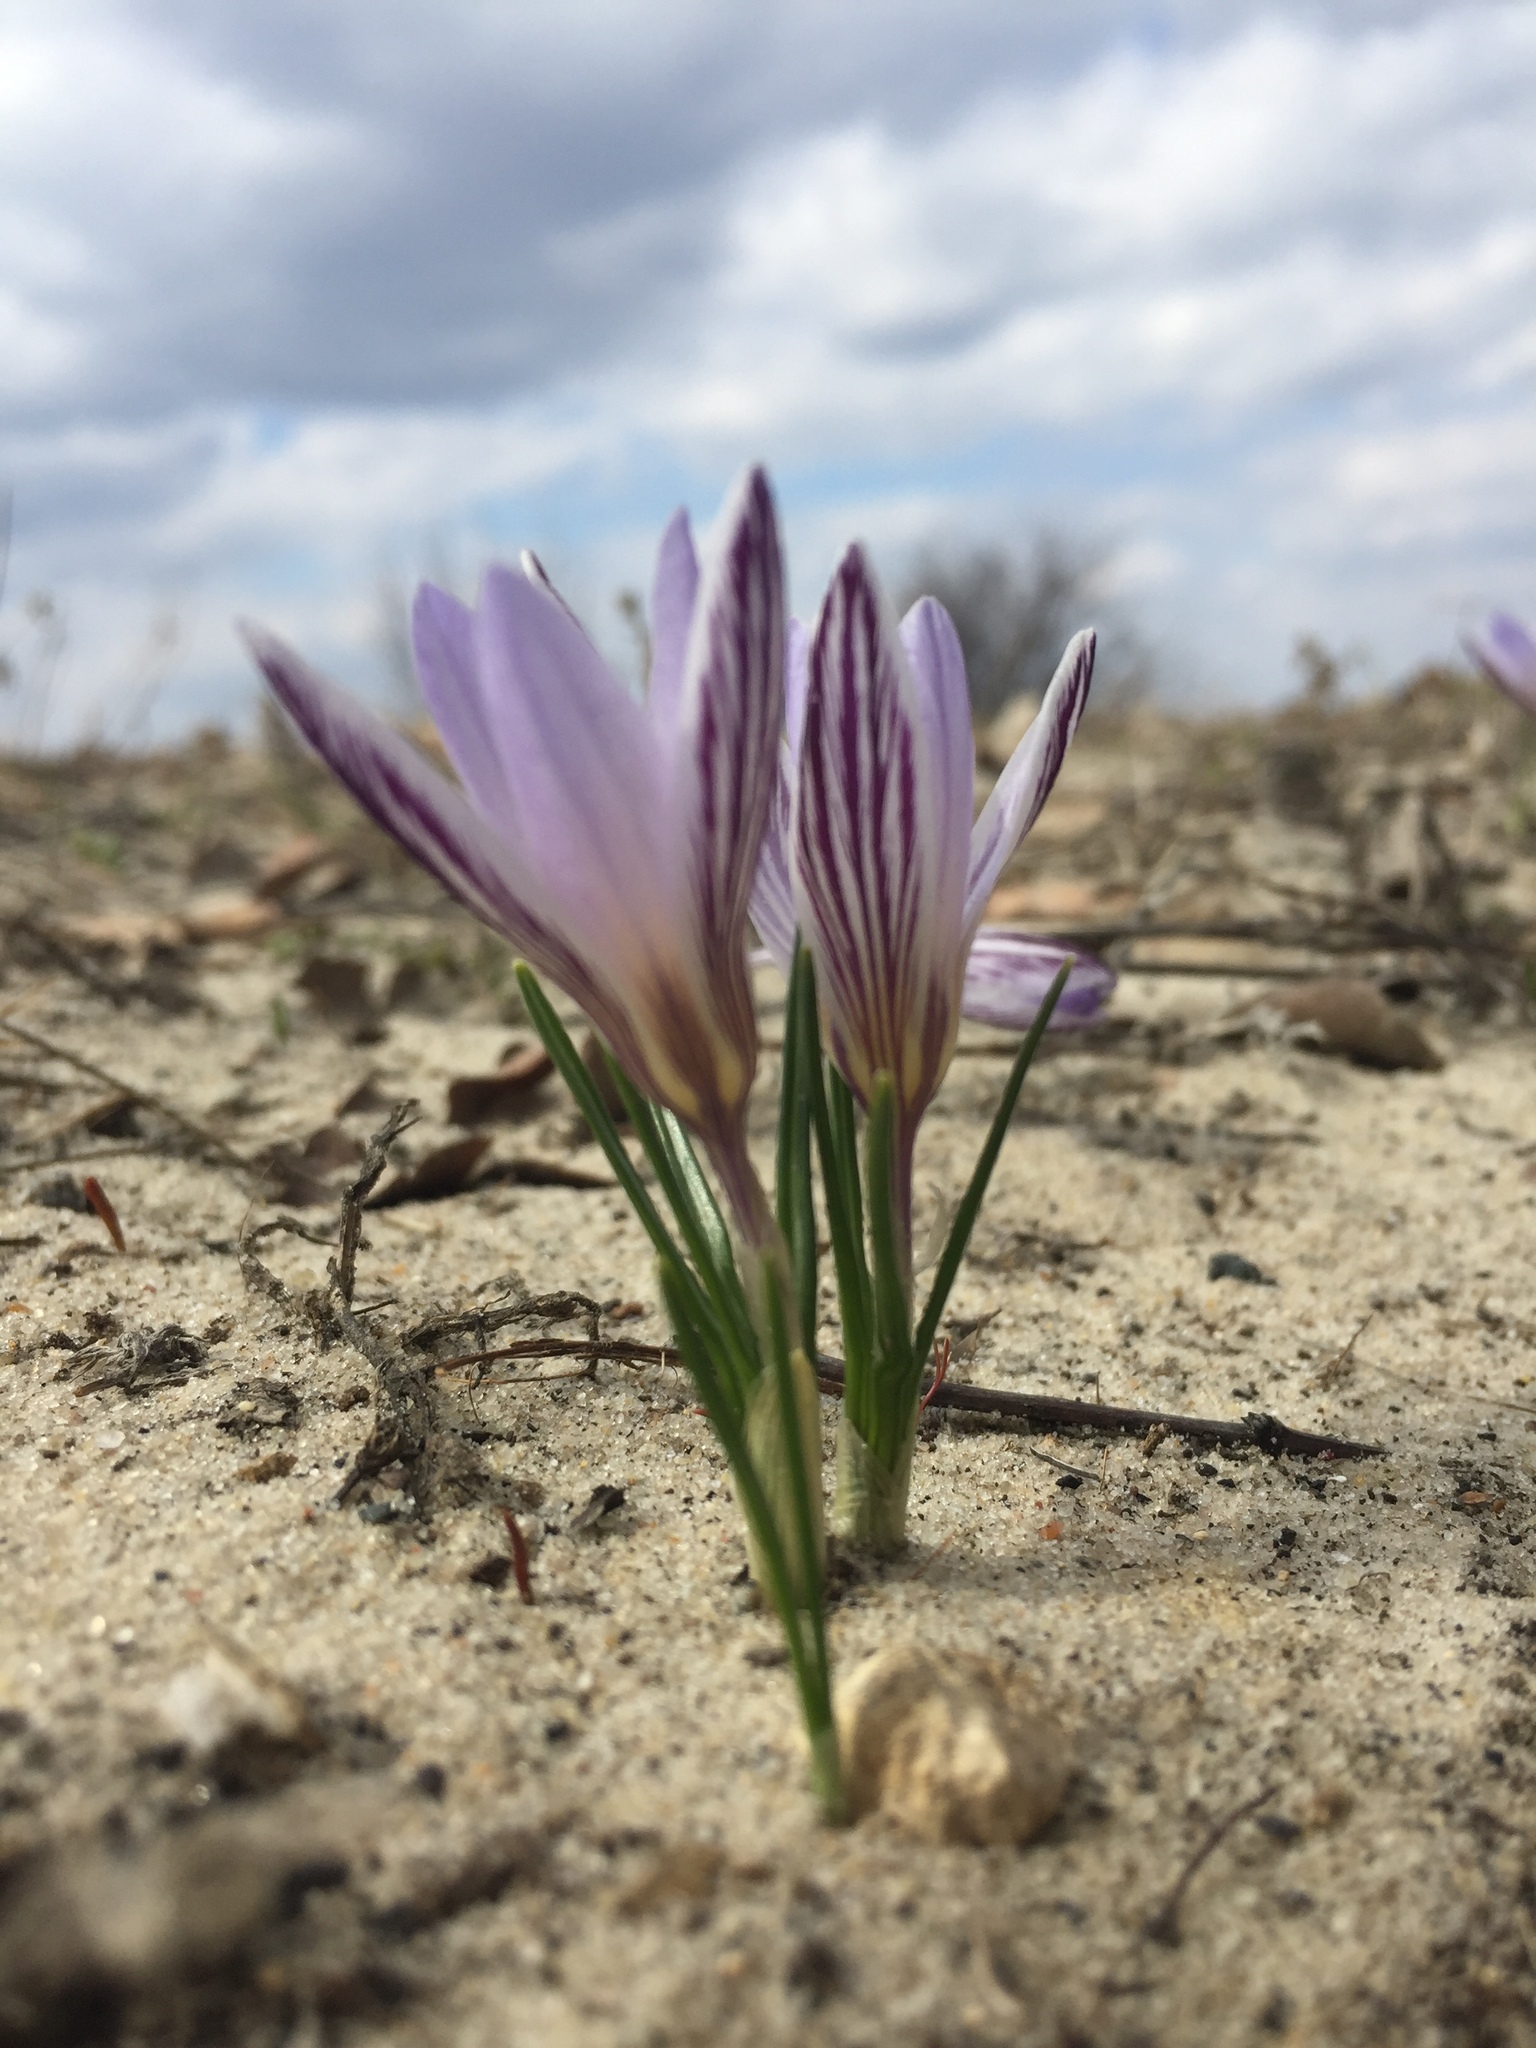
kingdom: Plantae
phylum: Tracheophyta
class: Liliopsida
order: Asparagales
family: Iridaceae
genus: Crocus
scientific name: Crocus reticulatus
